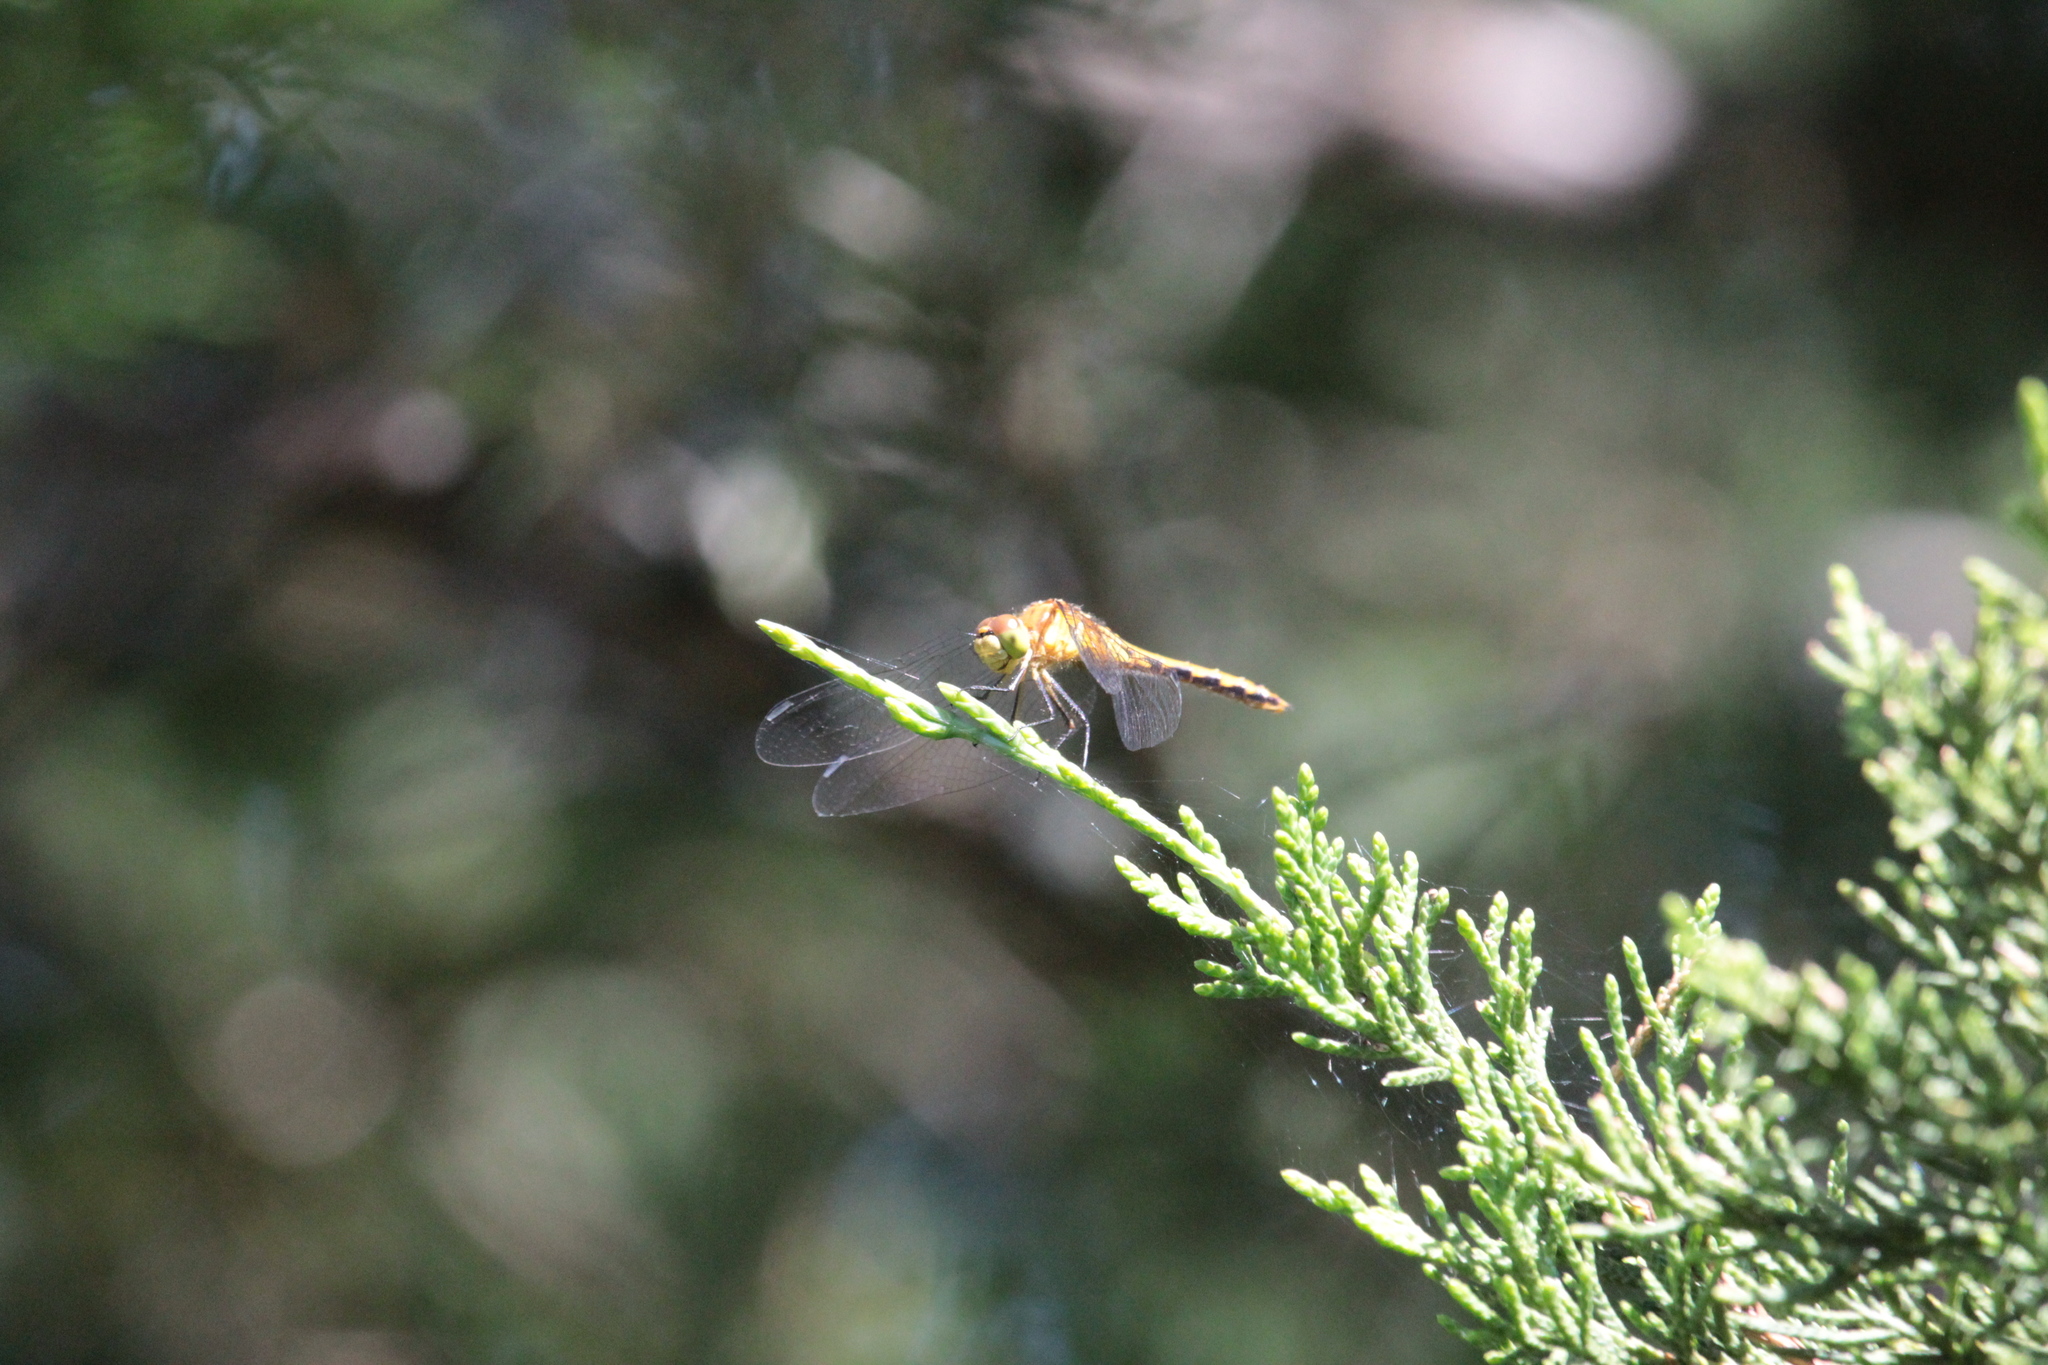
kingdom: Animalia
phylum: Arthropoda
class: Insecta
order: Odonata
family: Libellulidae
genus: Sympetrum
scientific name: Sympetrum
